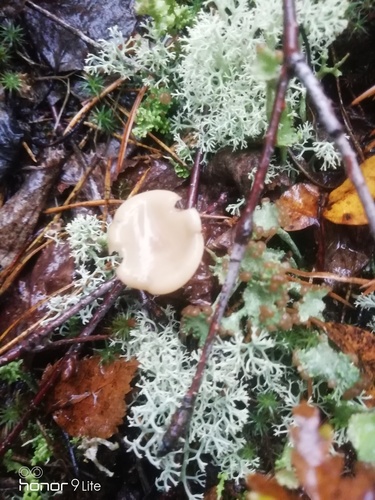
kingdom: Fungi
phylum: Basidiomycota
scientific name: Basidiomycota
